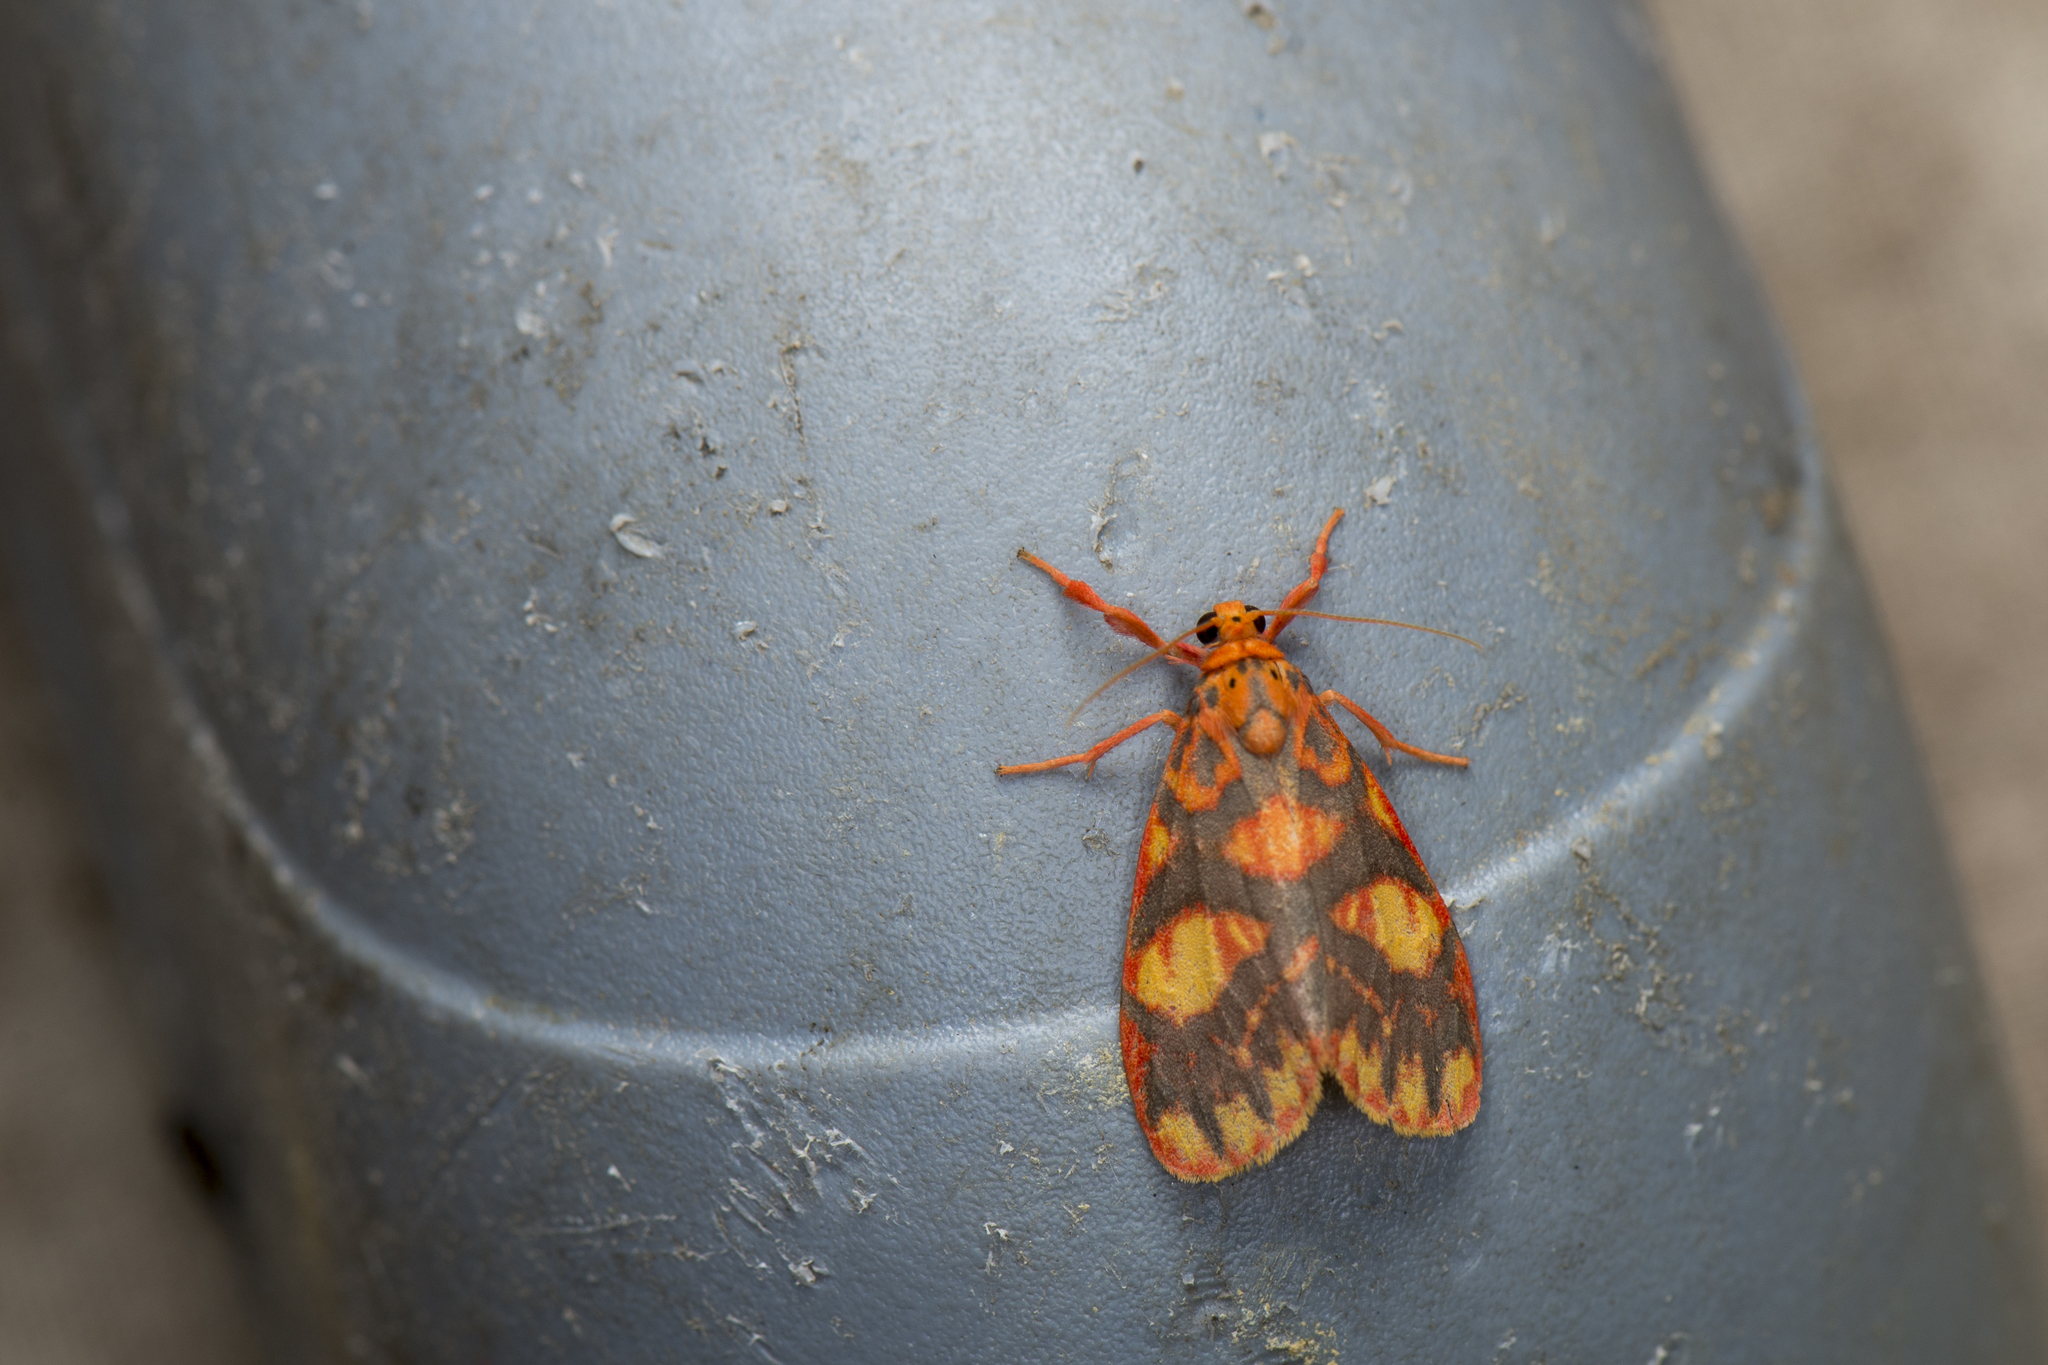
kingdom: Animalia
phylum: Arthropoda
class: Insecta
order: Lepidoptera
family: Erebidae
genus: Floridasura
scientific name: Floridasura tricolor
